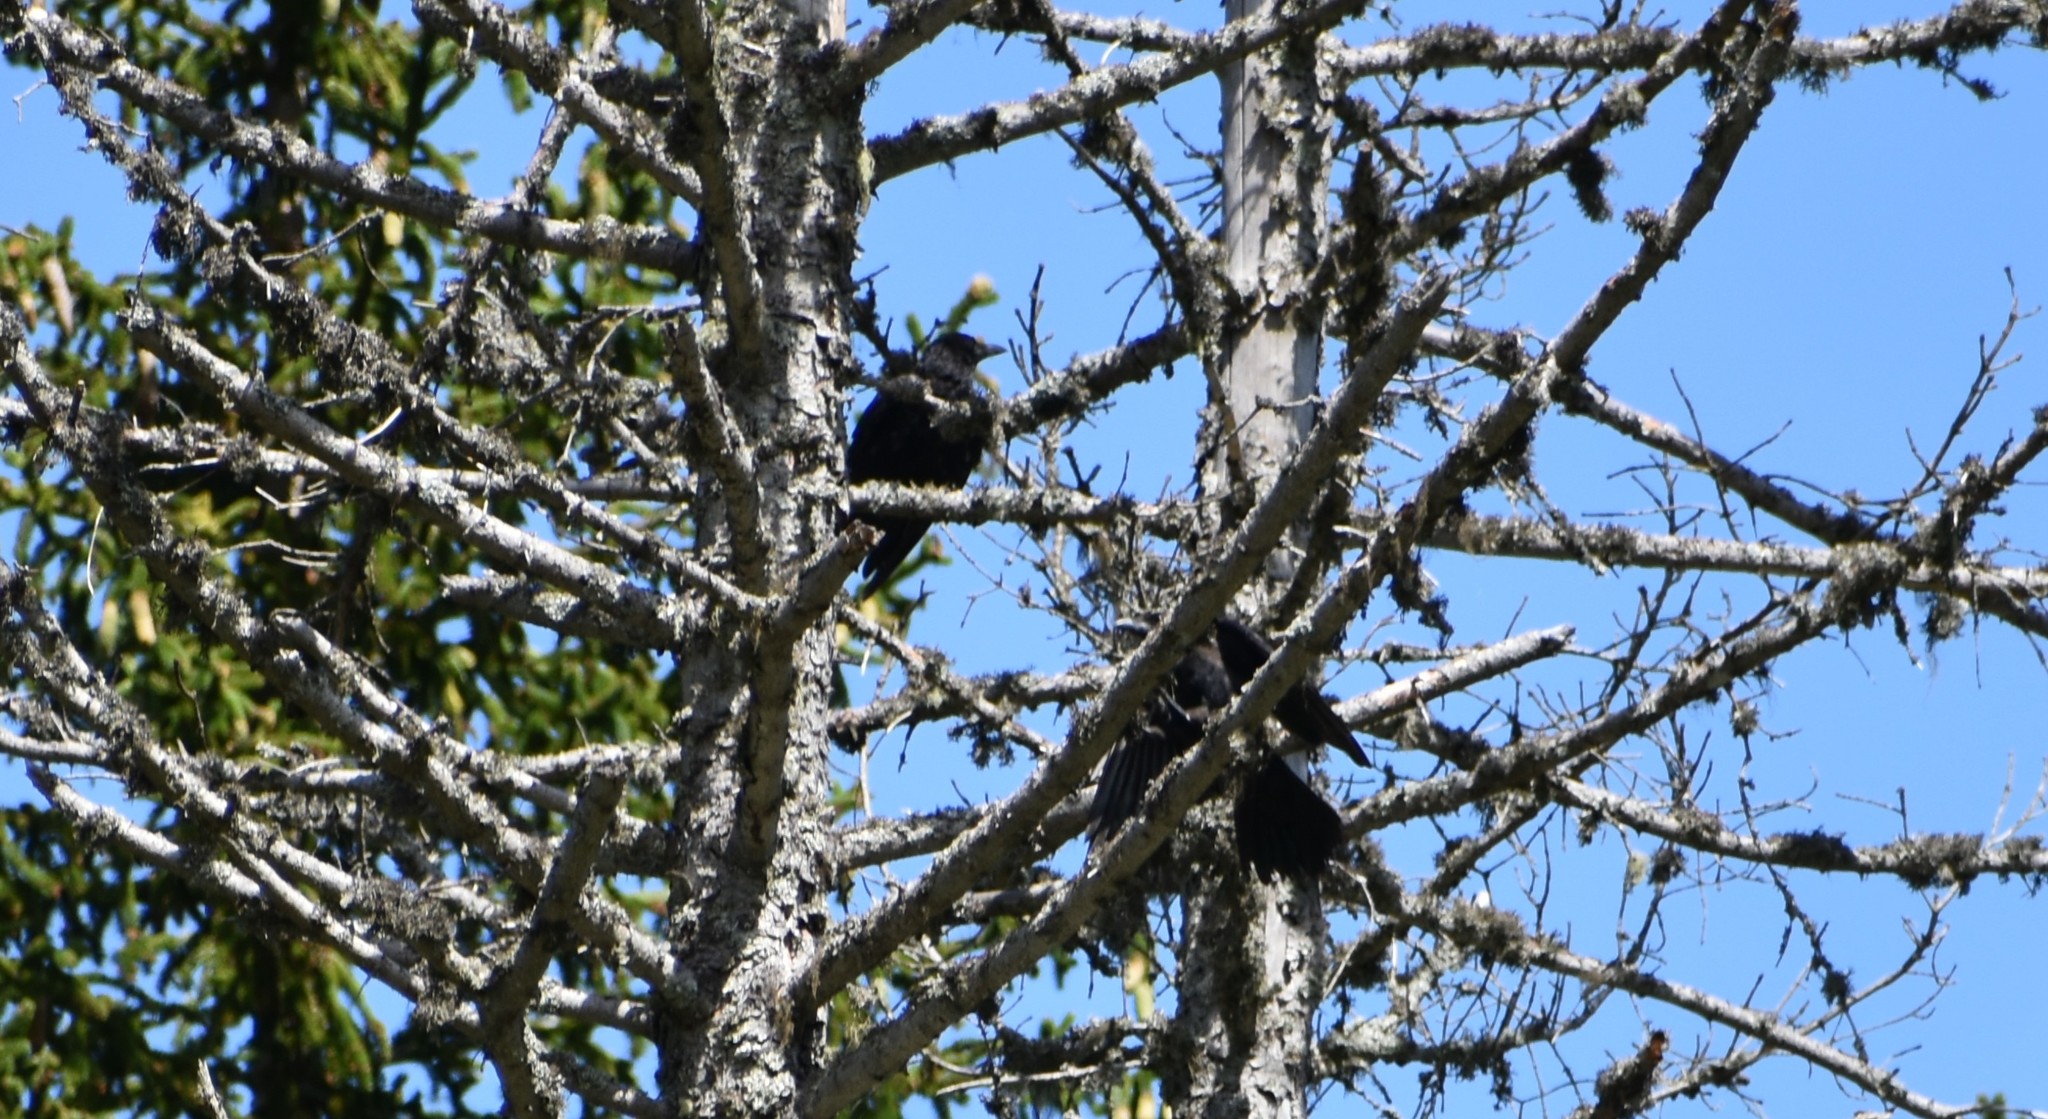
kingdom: Animalia
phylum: Chordata
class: Aves
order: Passeriformes
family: Corvidae
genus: Corvus
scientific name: Corvus corone
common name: Carrion crow
